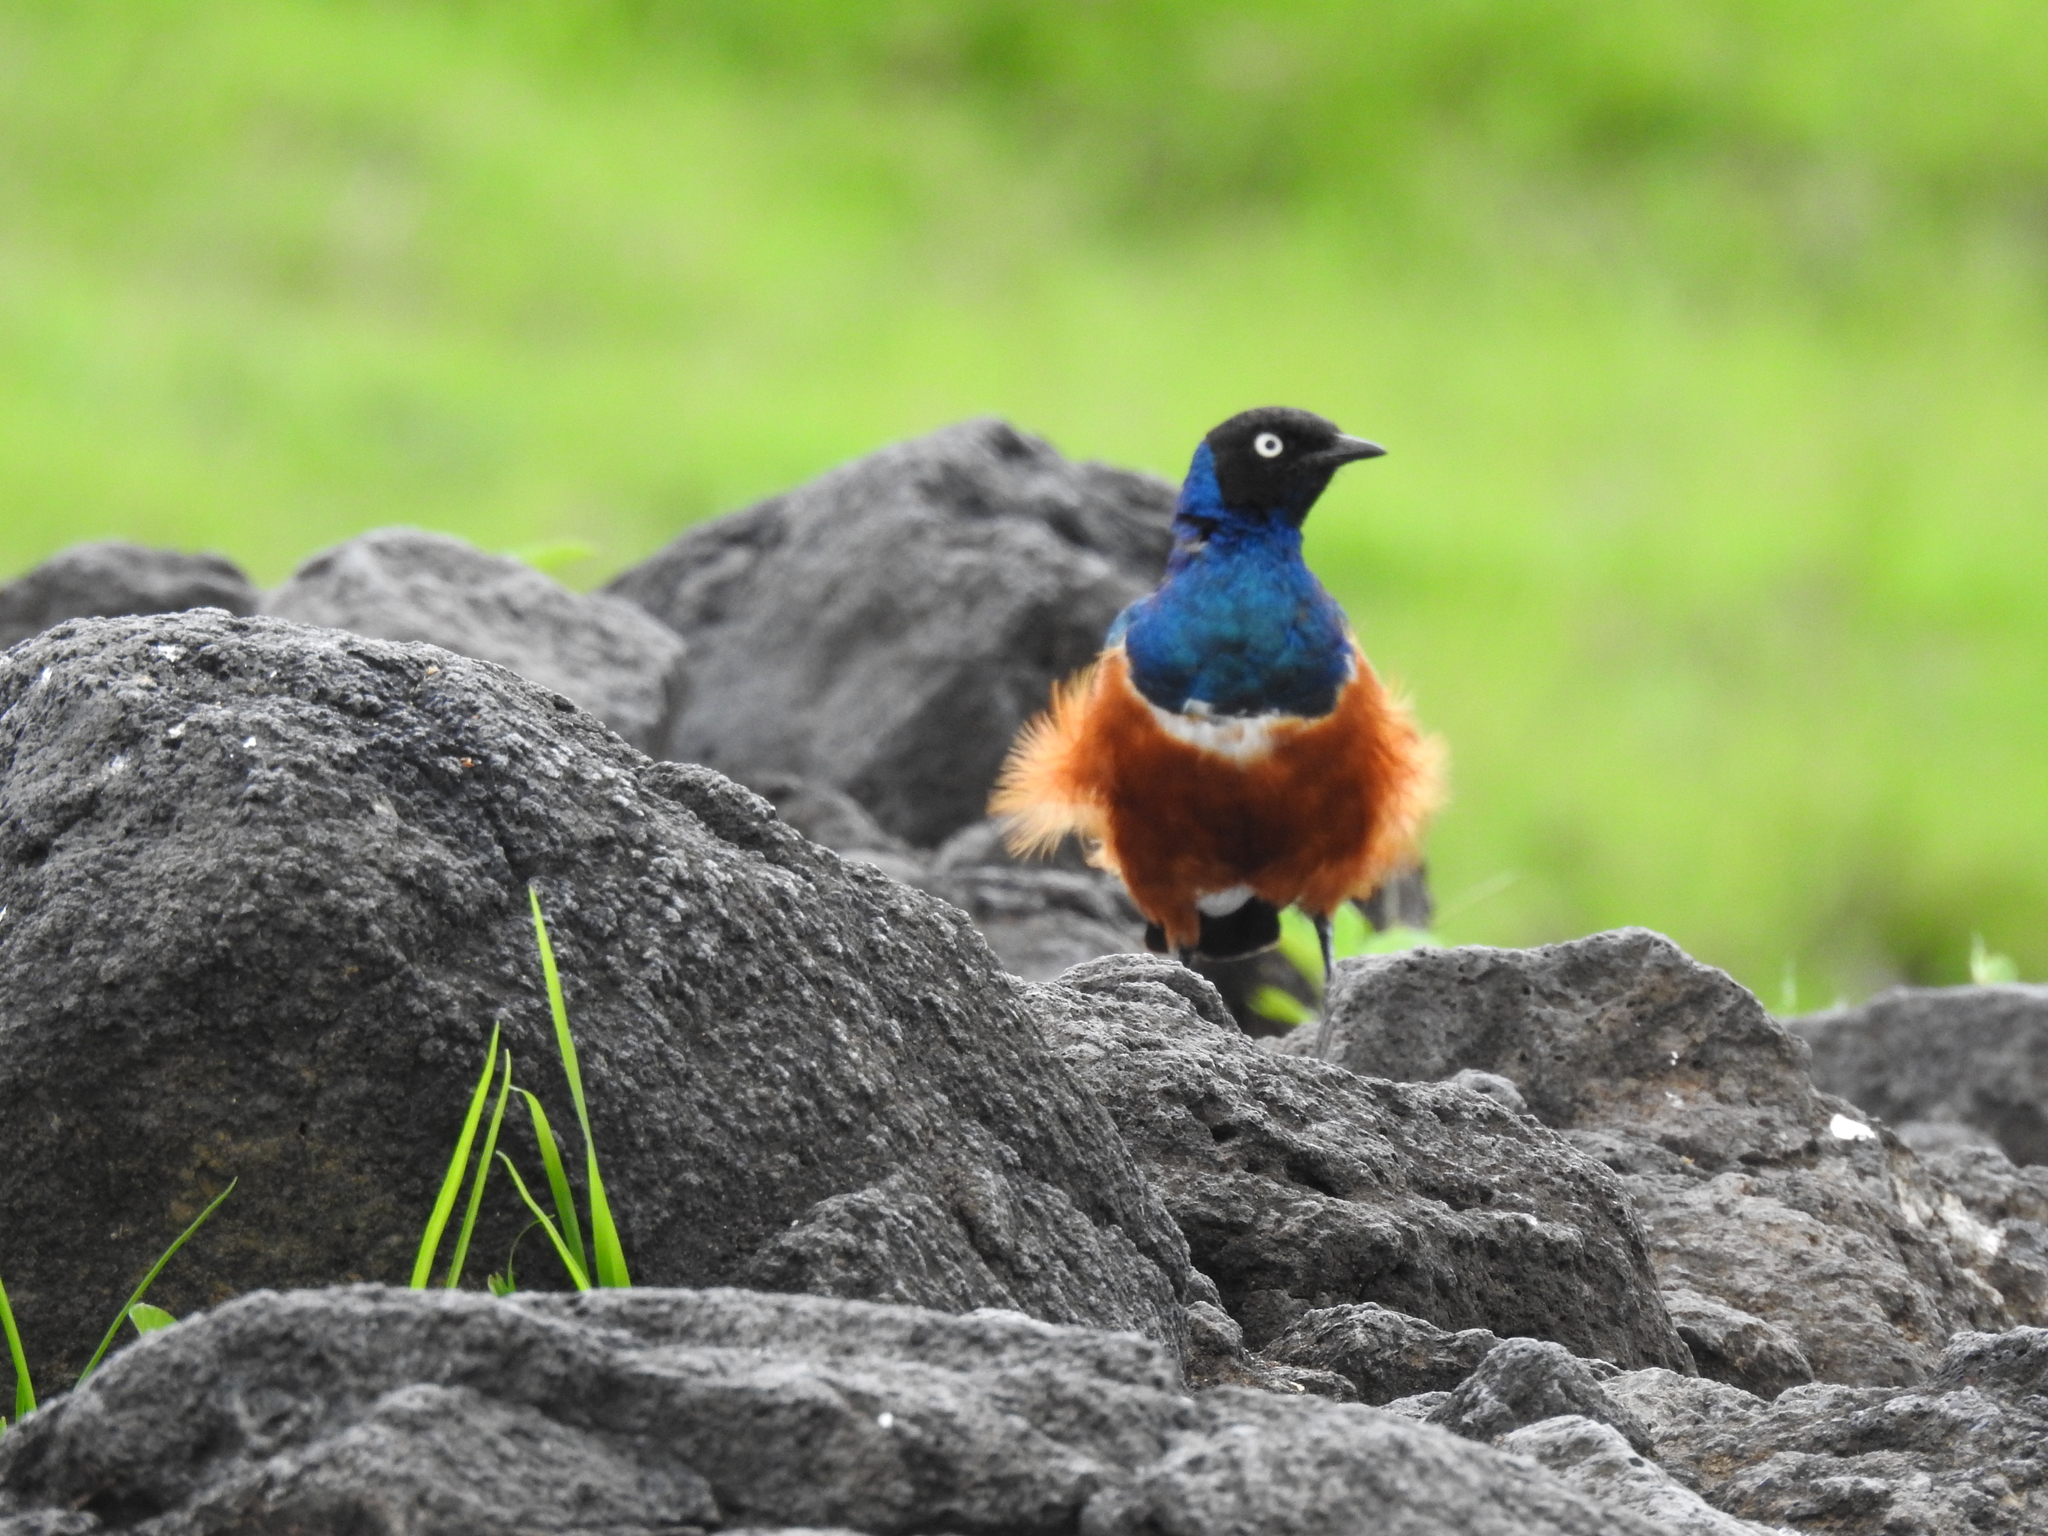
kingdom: Animalia
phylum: Chordata
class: Aves
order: Passeriformes
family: Sturnidae
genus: Lamprotornis
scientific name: Lamprotornis superbus
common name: Superb starling
